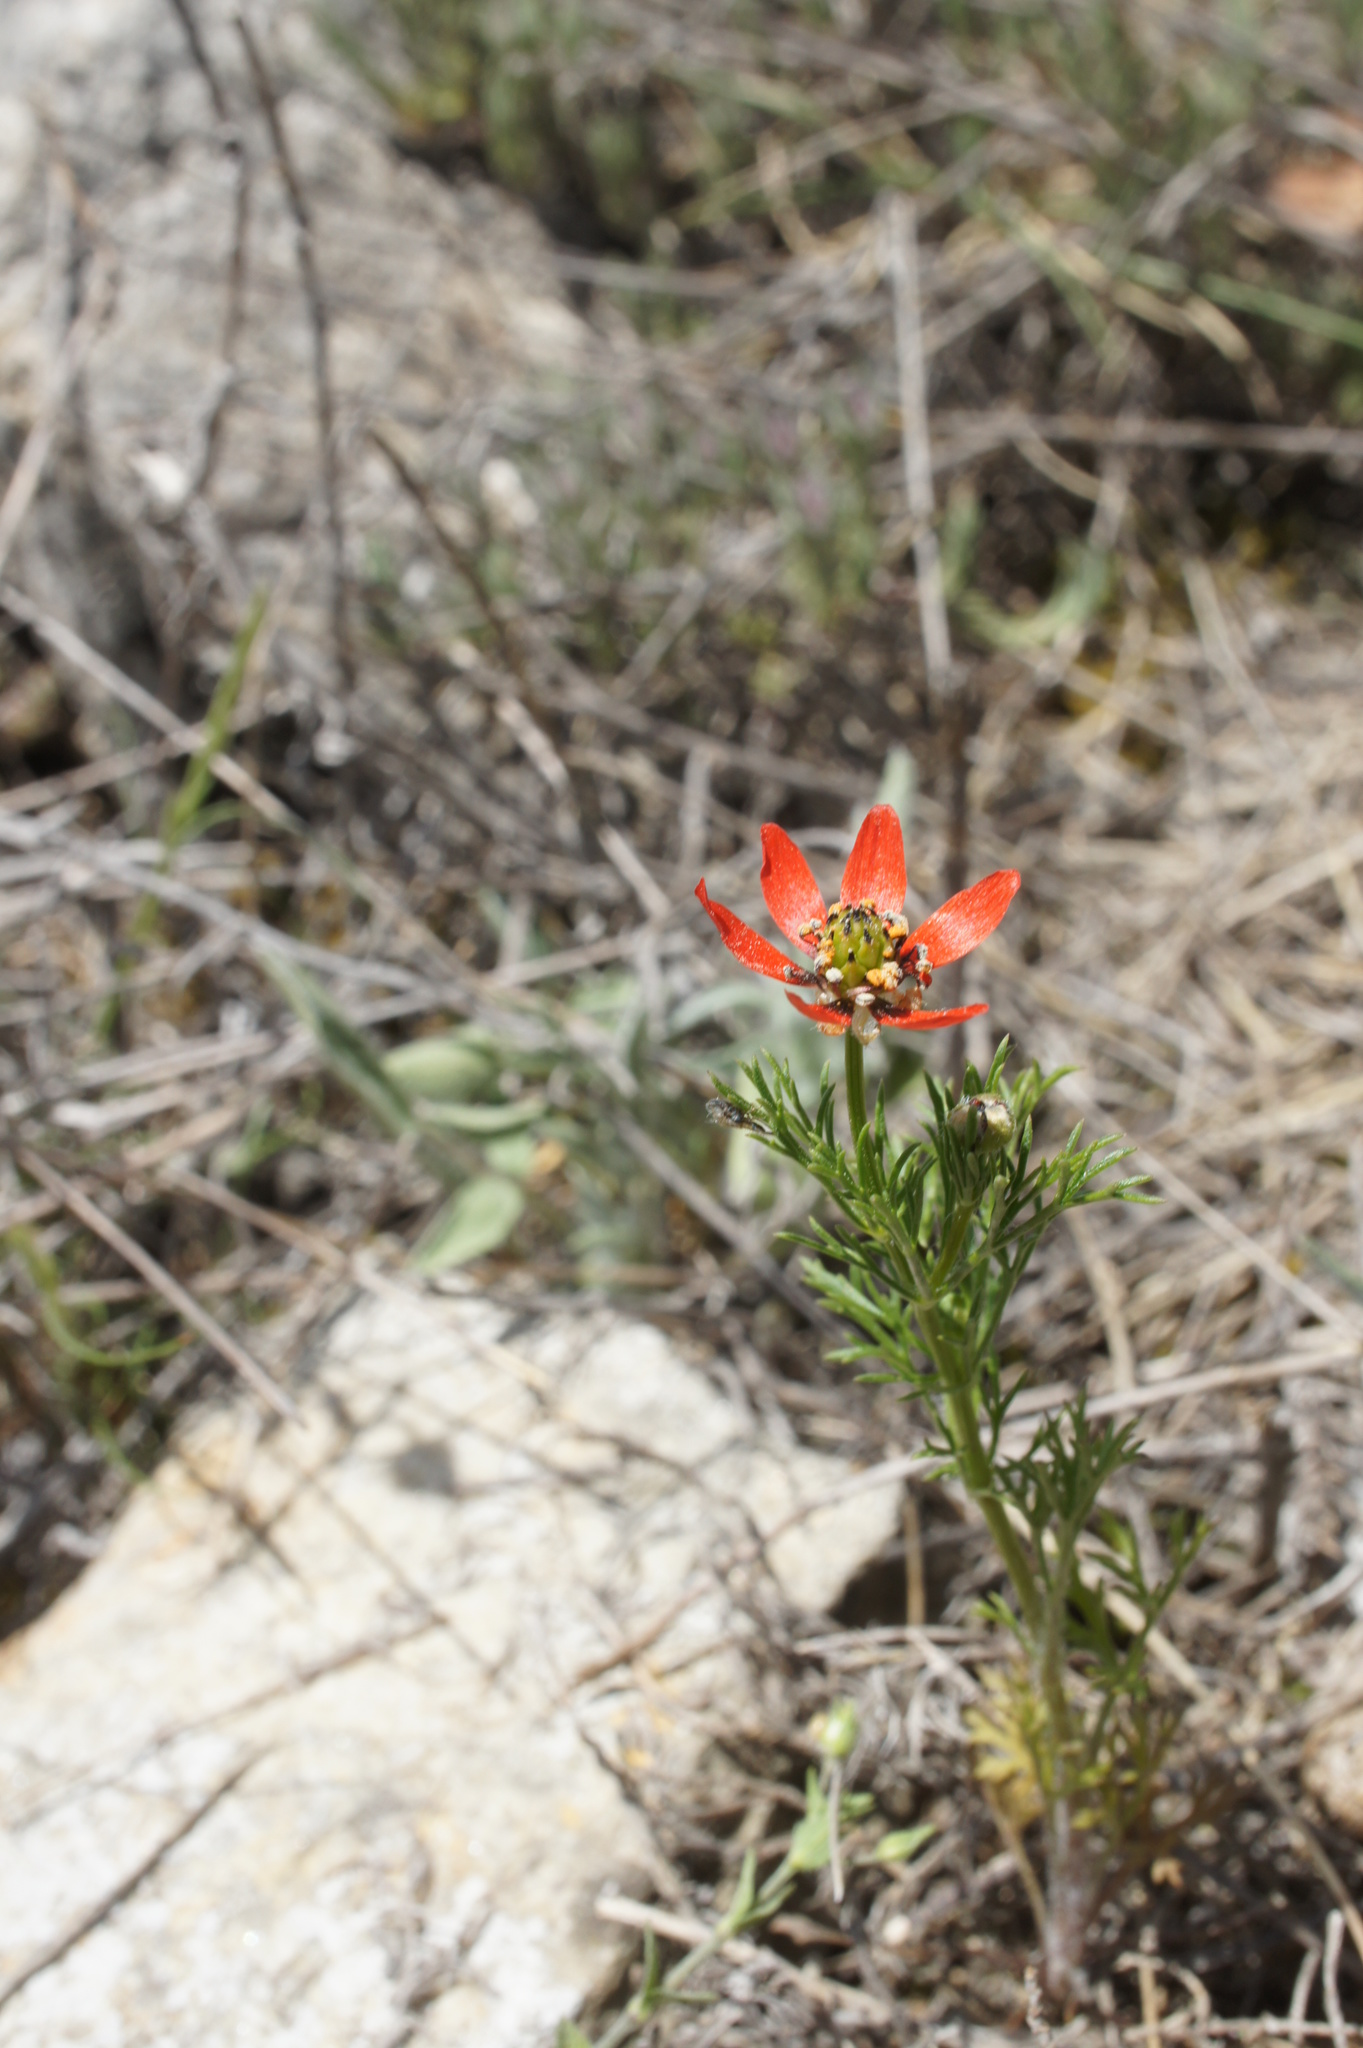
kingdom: Plantae
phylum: Tracheophyta
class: Magnoliopsida
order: Ranunculales
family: Ranunculaceae
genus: Adonis
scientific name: Adonis flammea
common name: Large pheasant's-eye
